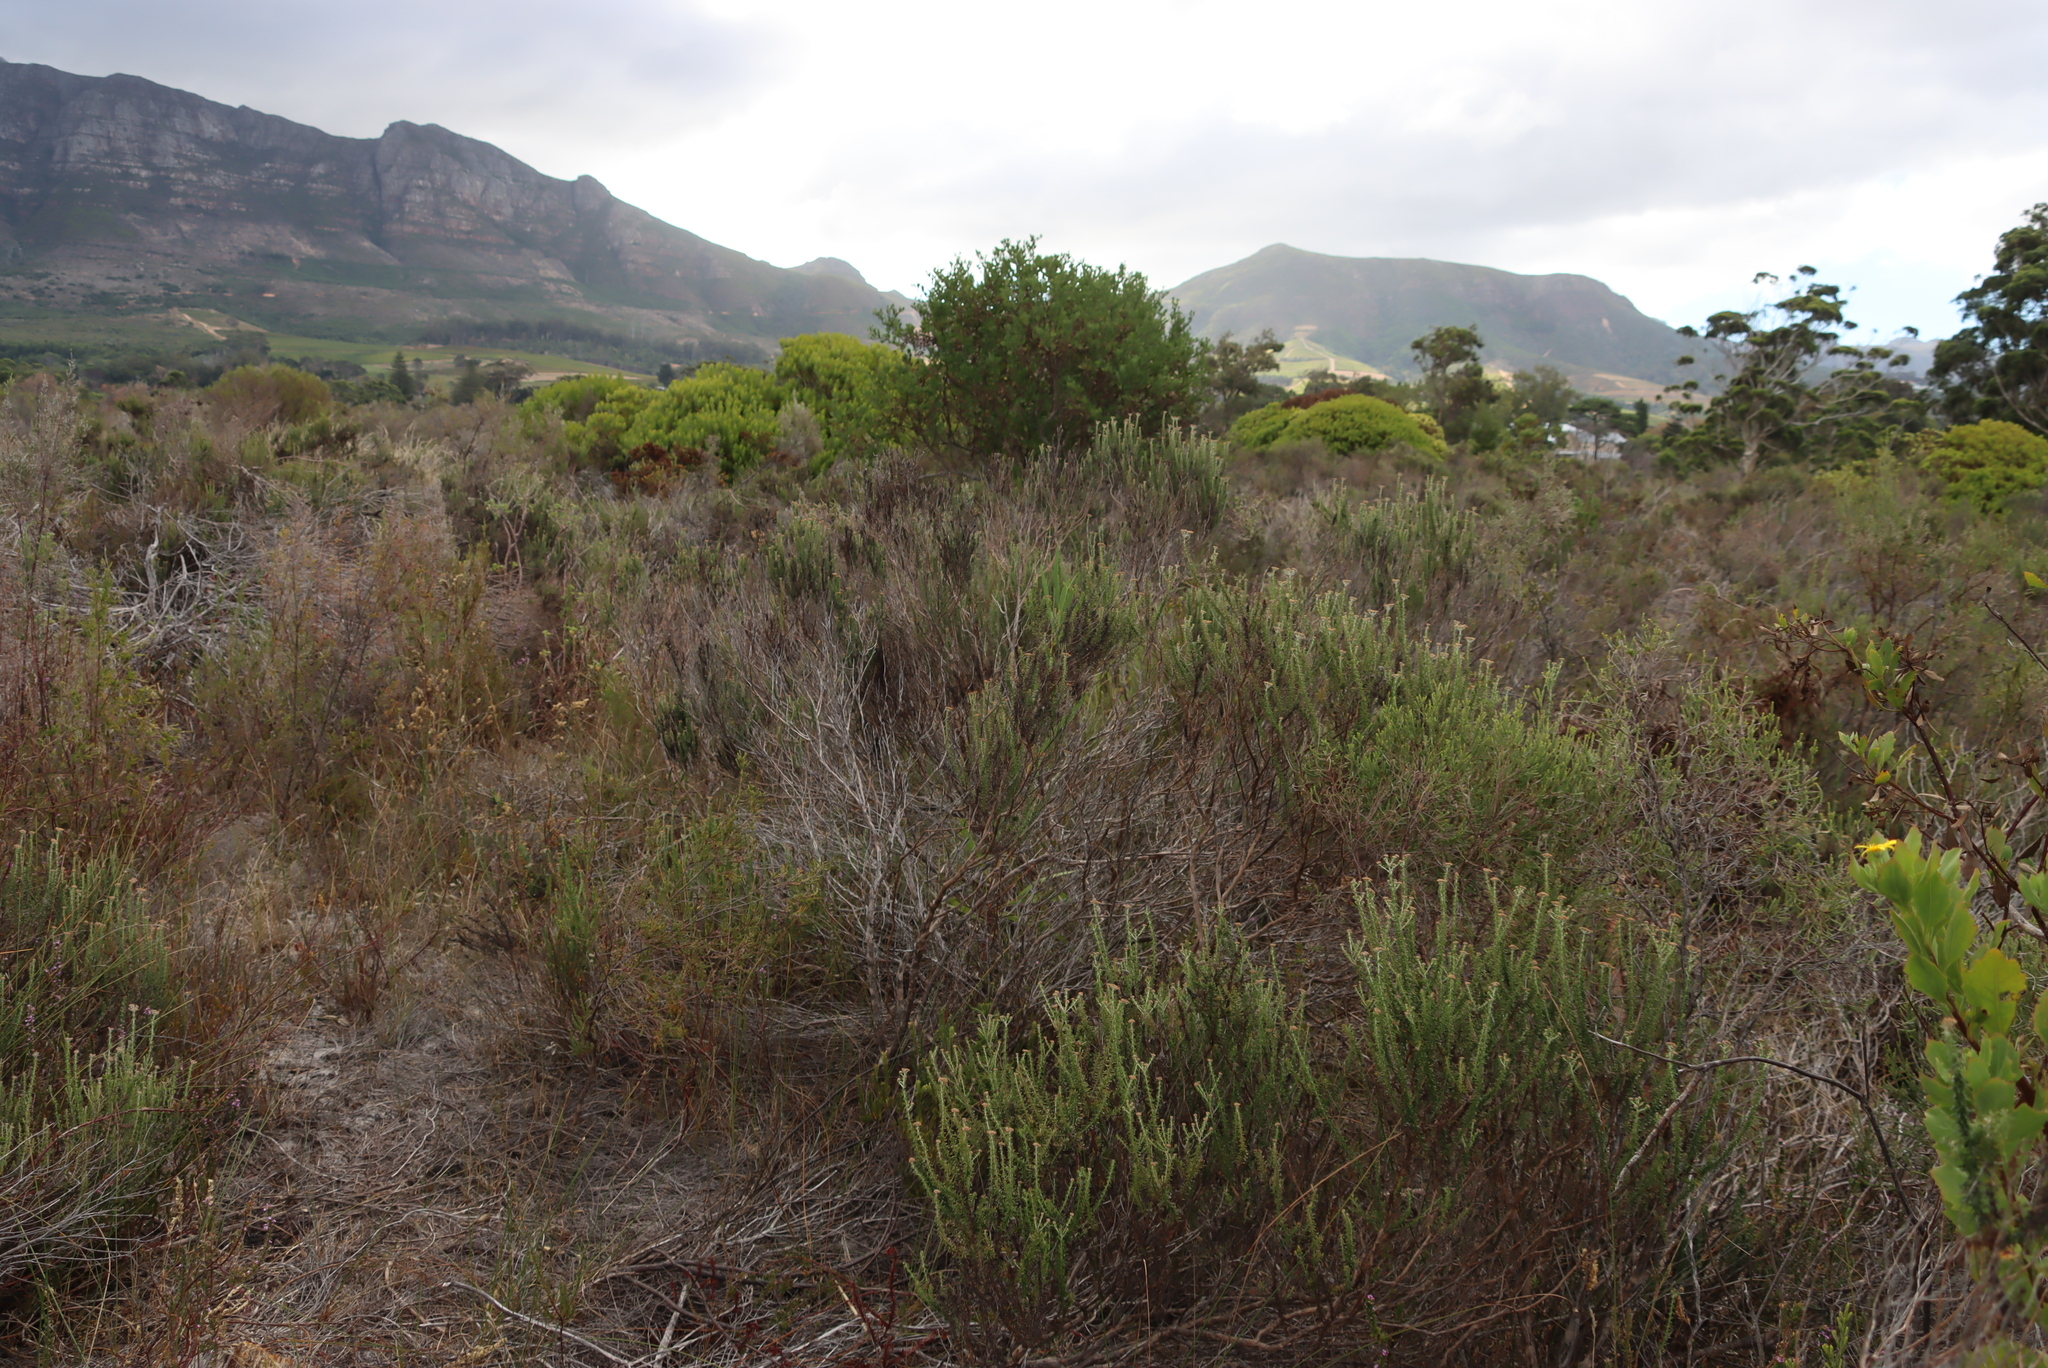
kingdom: Plantae
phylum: Tracheophyta
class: Magnoliopsida
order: Asterales
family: Asteraceae
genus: Metalasia
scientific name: Metalasia densa
